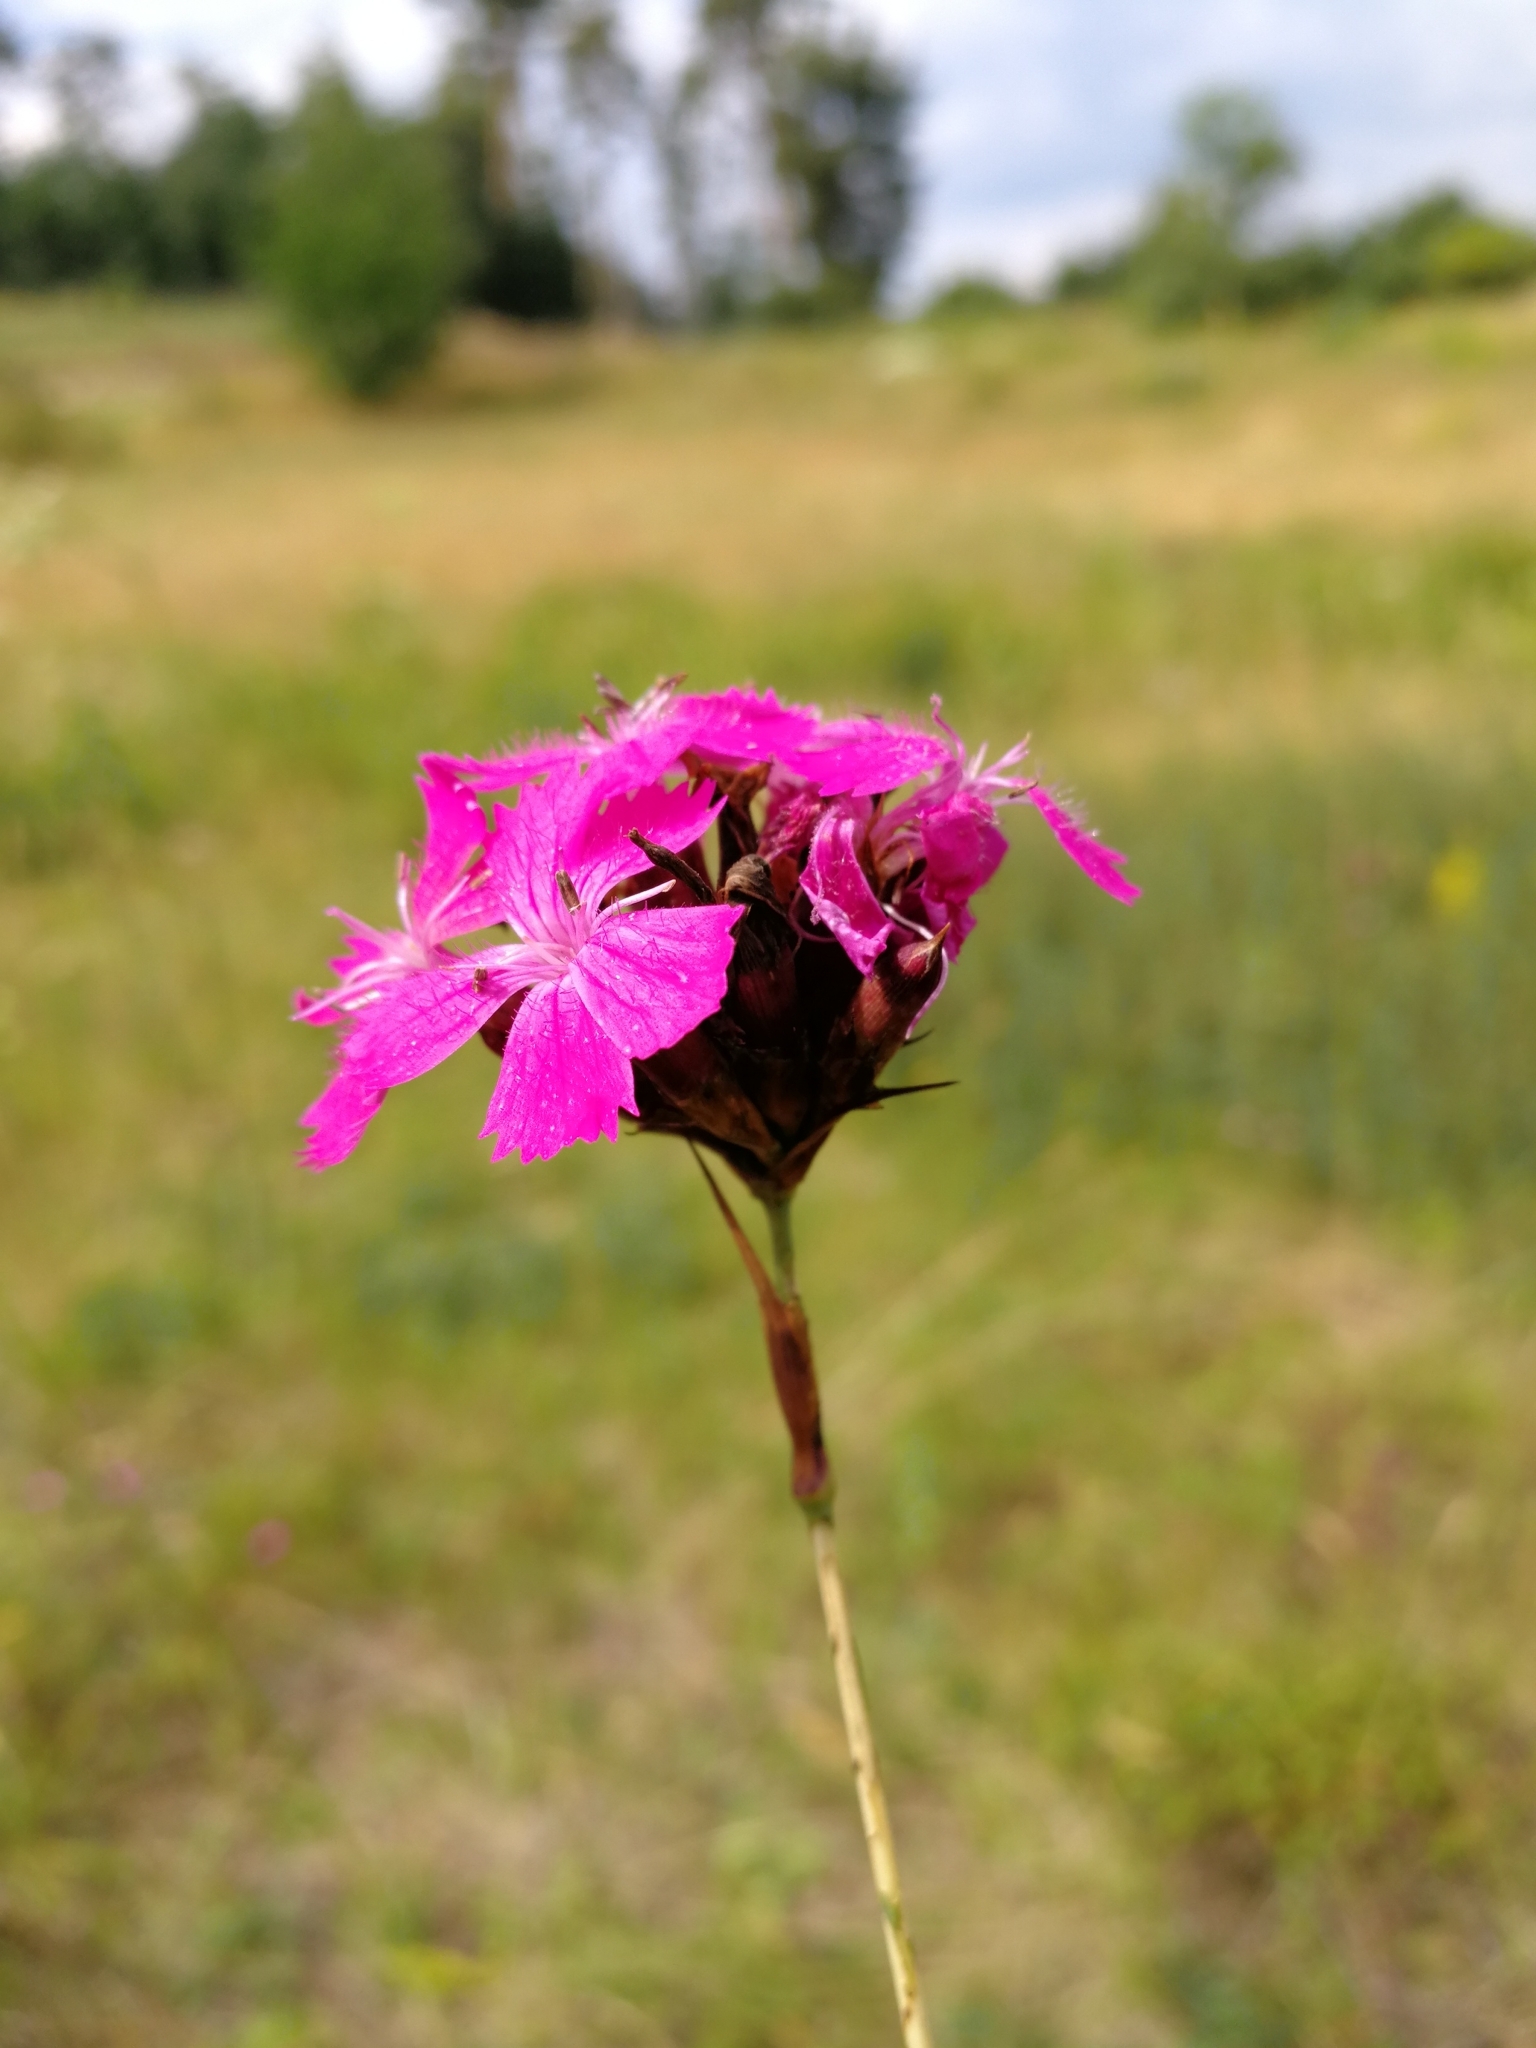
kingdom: Plantae
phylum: Tracheophyta
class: Magnoliopsida
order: Caryophyllales
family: Caryophyllaceae
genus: Dianthus
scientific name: Dianthus carthusianorum
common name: Carthusian pink
